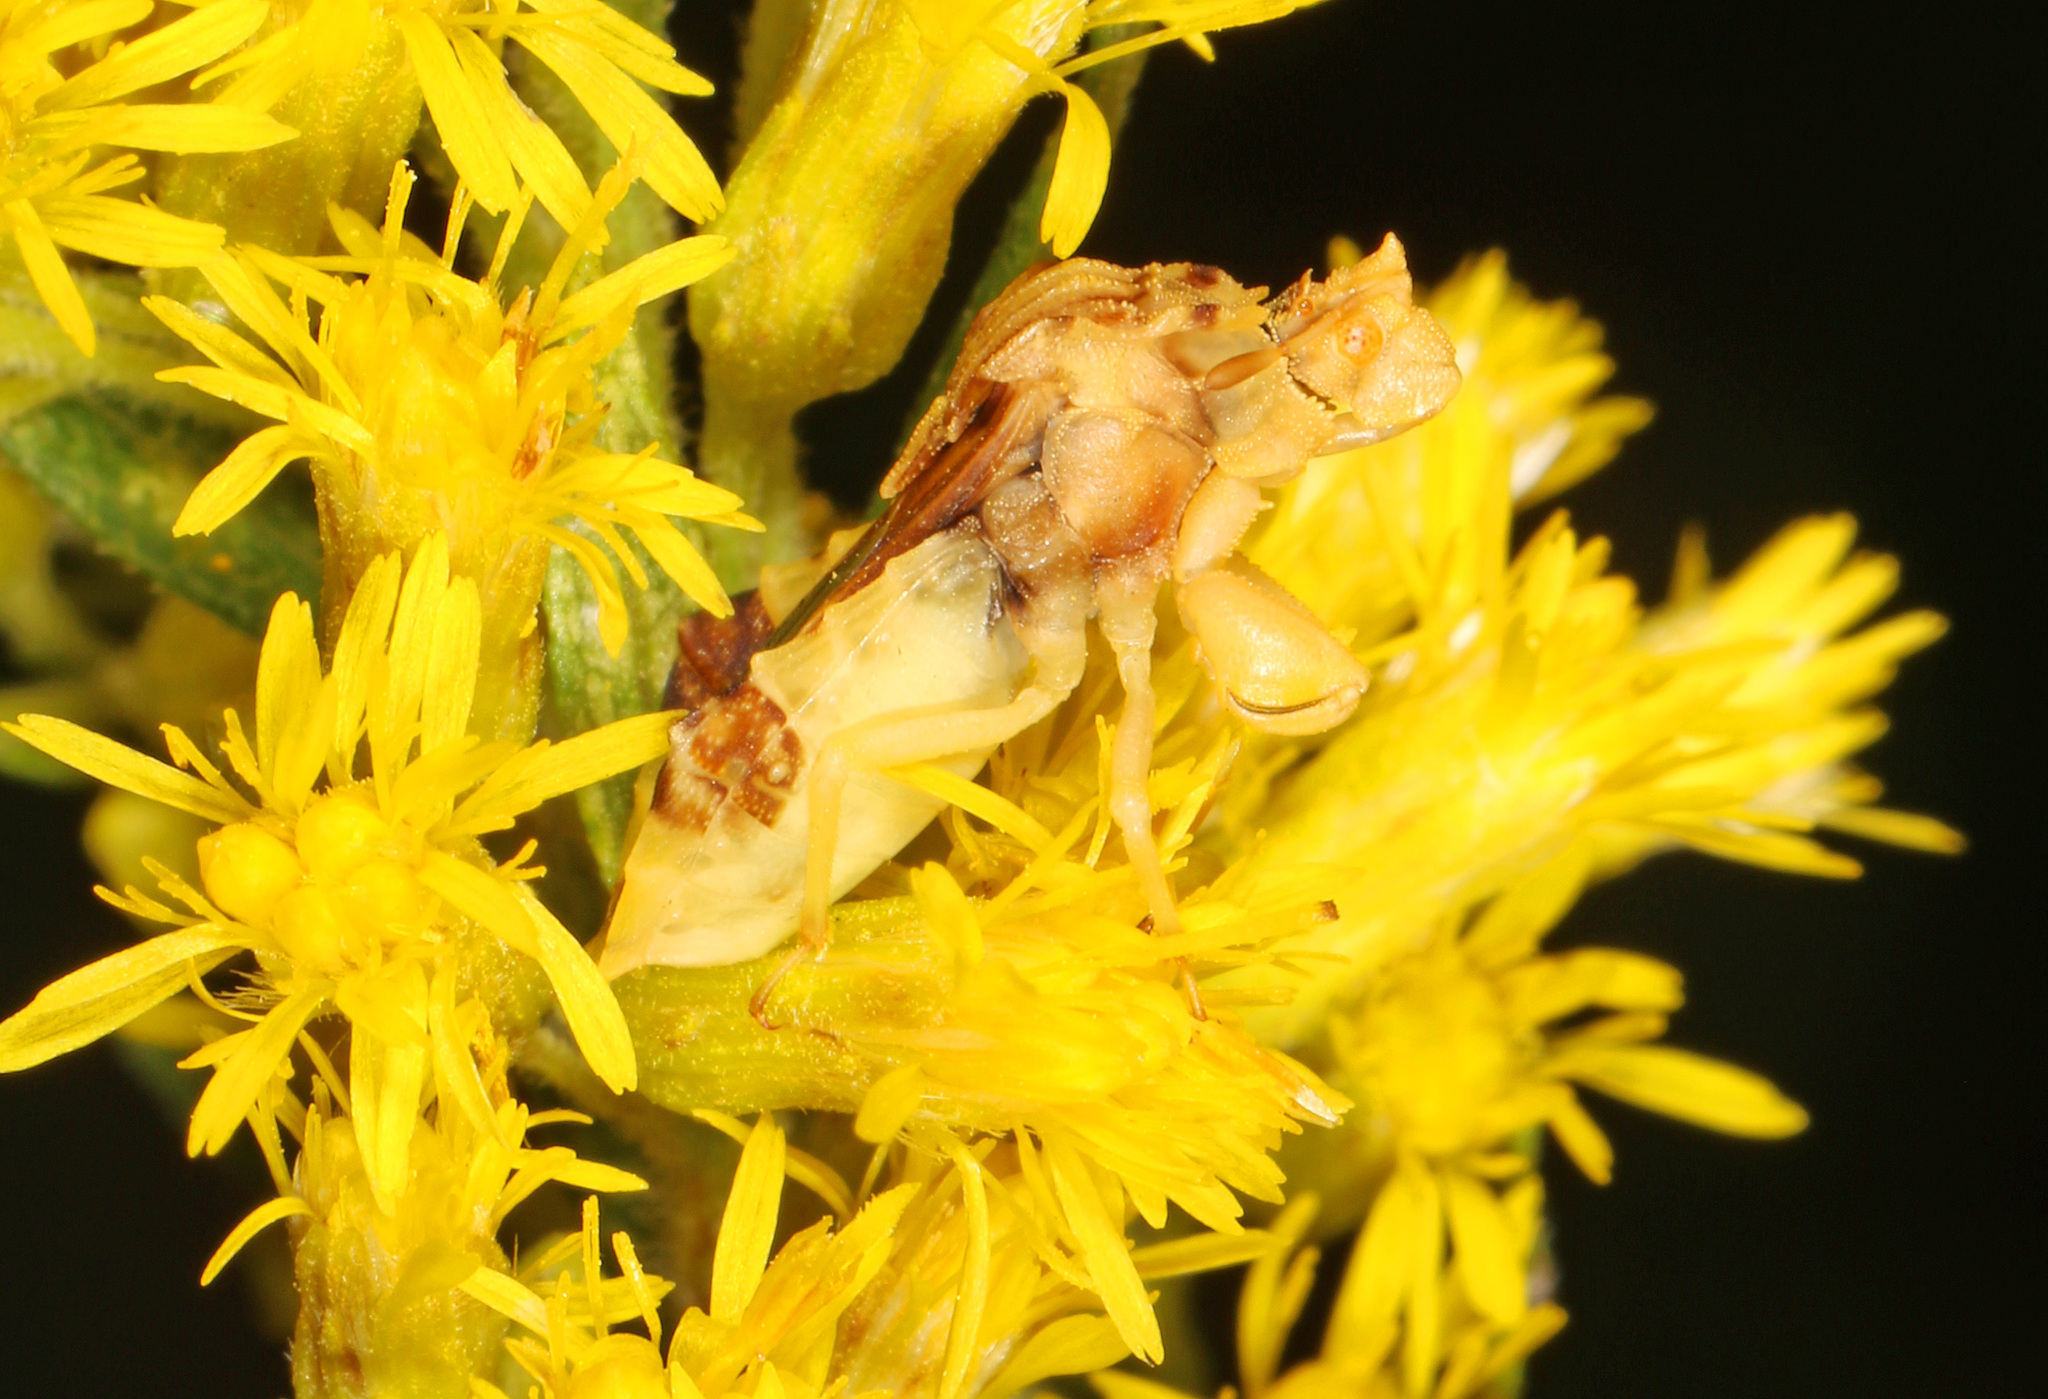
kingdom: Animalia
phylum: Arthropoda
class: Insecta
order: Hemiptera
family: Reduviidae
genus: Phymata
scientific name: Phymata fasciata
